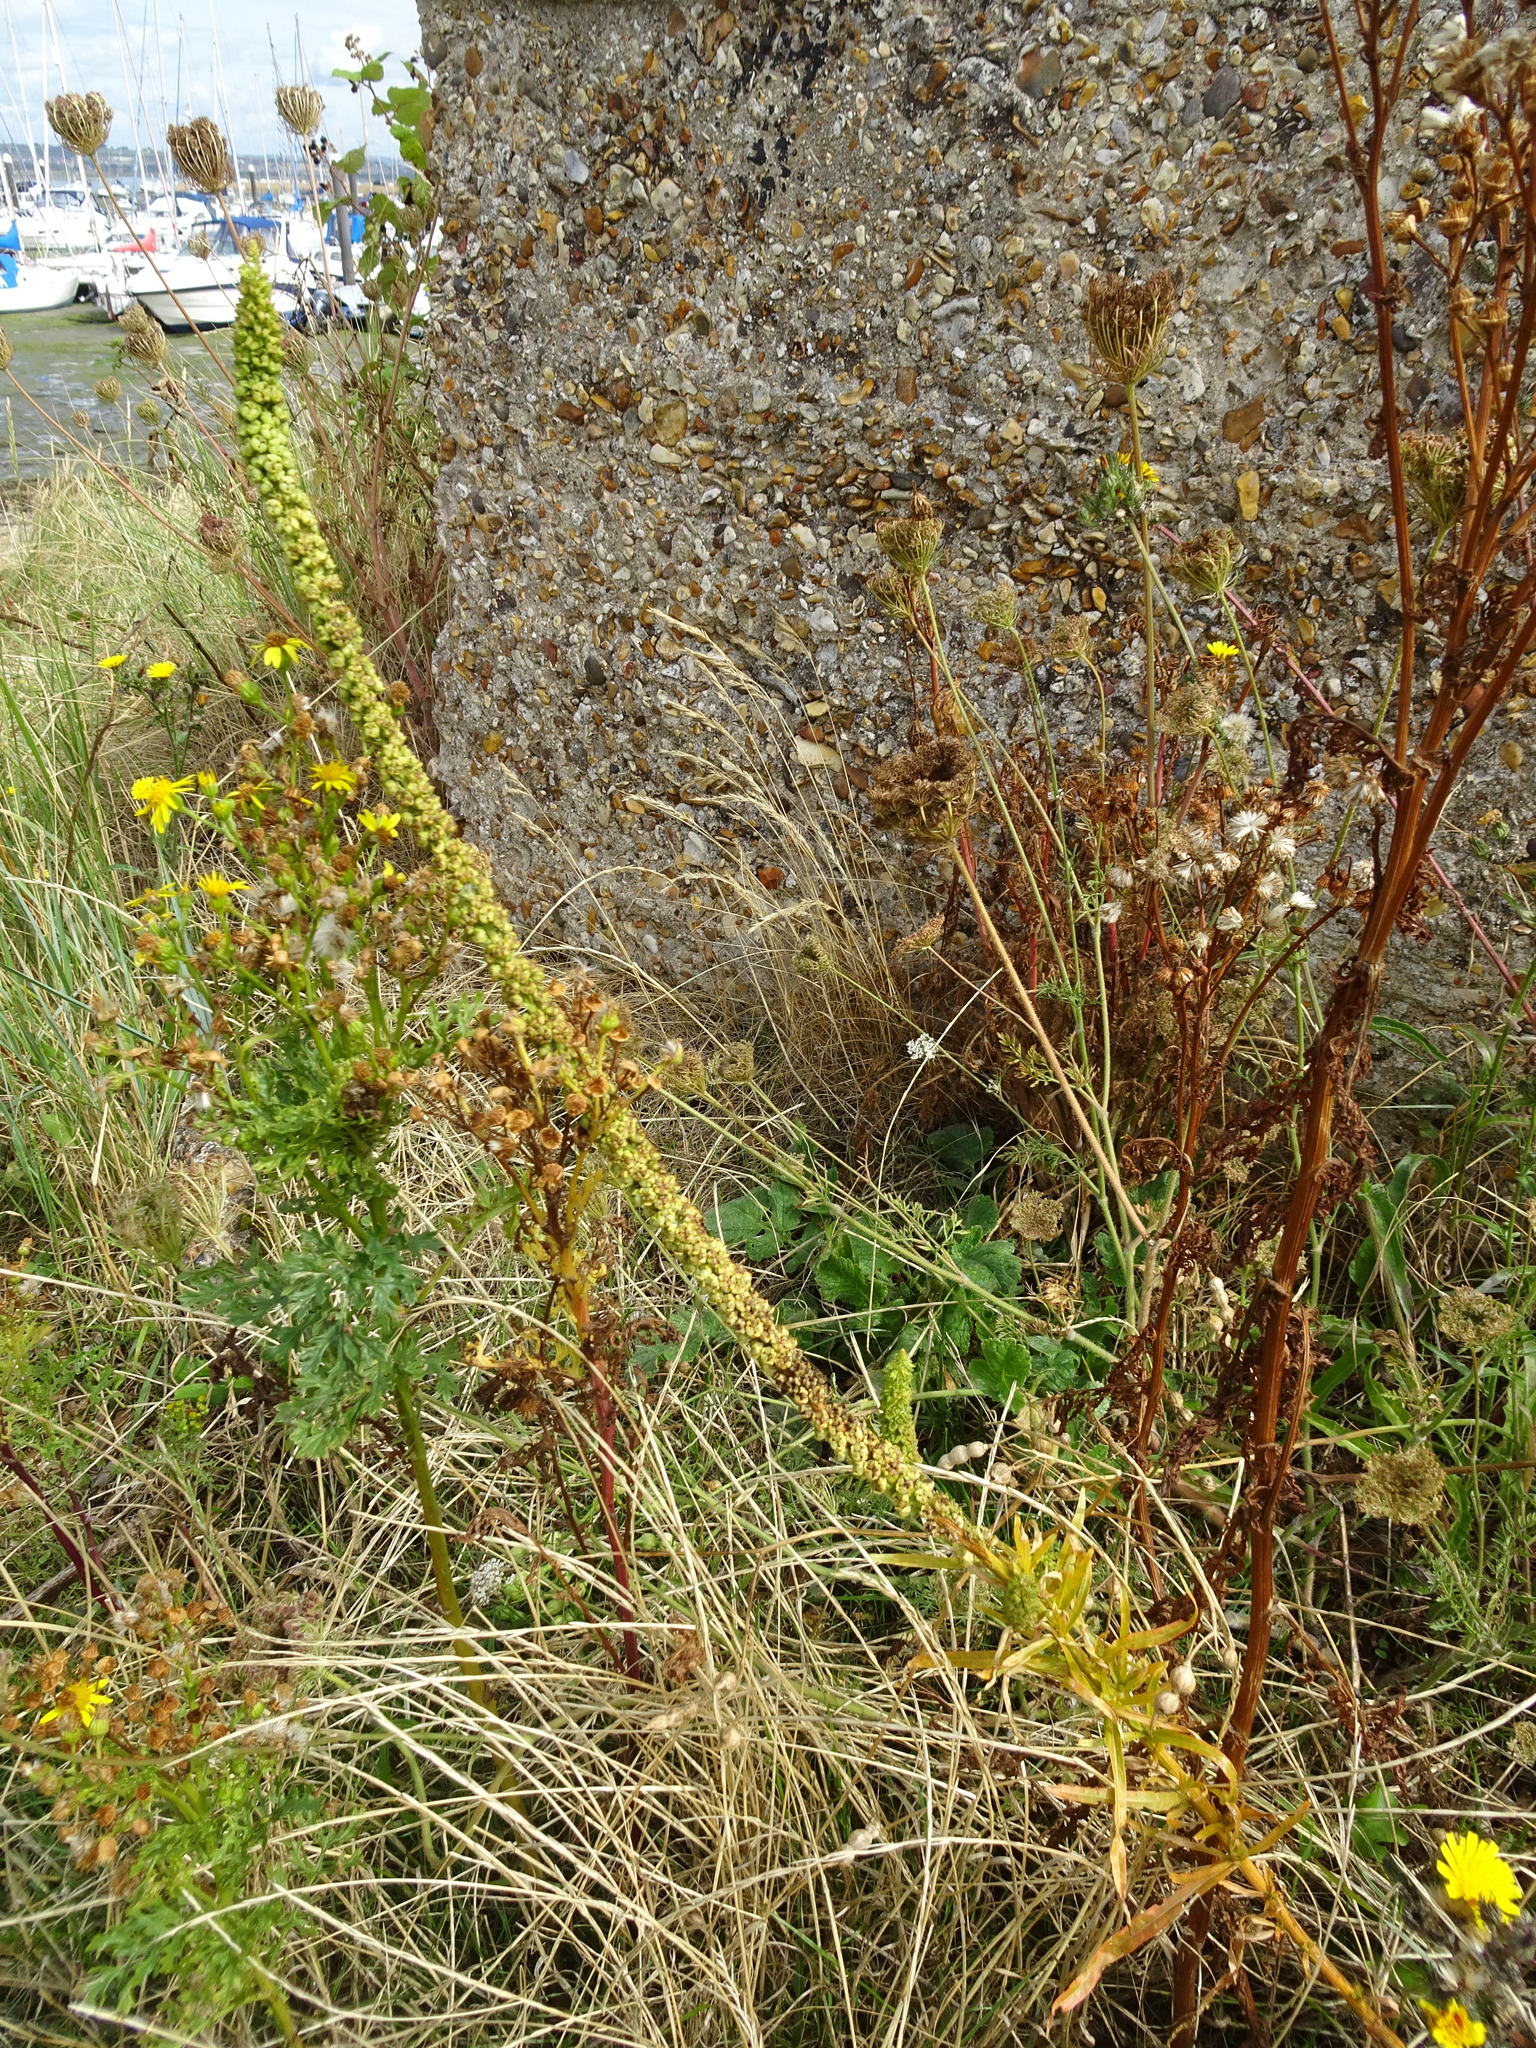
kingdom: Plantae
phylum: Tracheophyta
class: Magnoliopsida
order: Brassicales
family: Resedaceae
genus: Reseda
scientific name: Reseda luteola
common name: Weld
